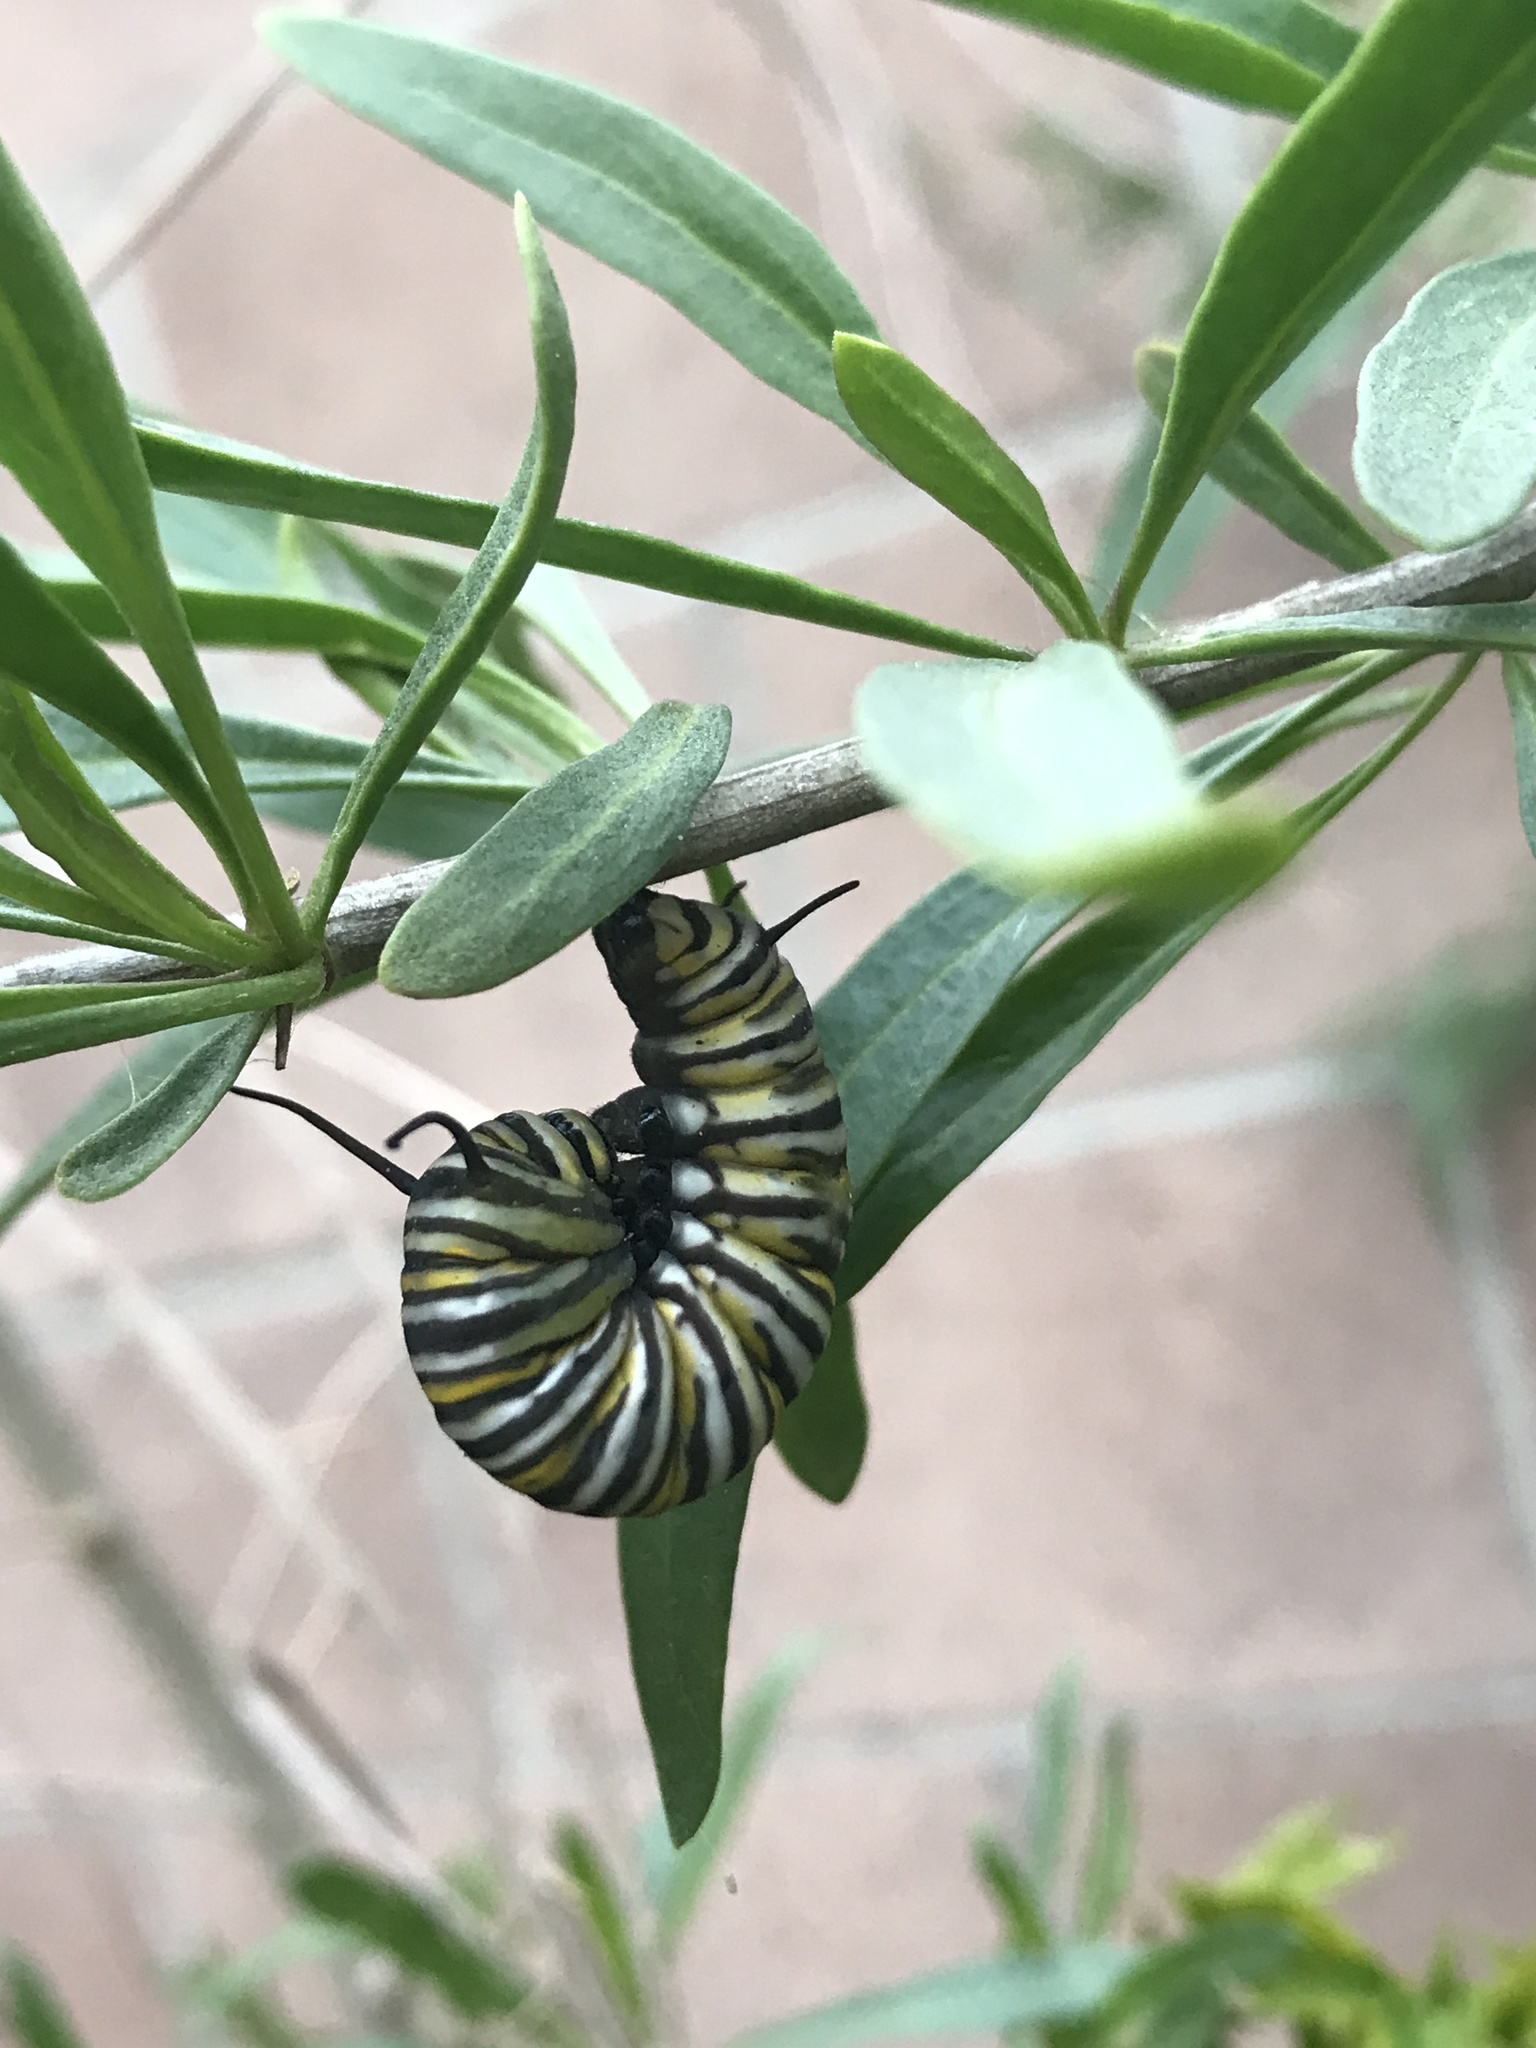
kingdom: Animalia
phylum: Arthropoda
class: Insecta
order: Lepidoptera
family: Nymphalidae
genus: Danaus
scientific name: Danaus plexippus
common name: Monarch
